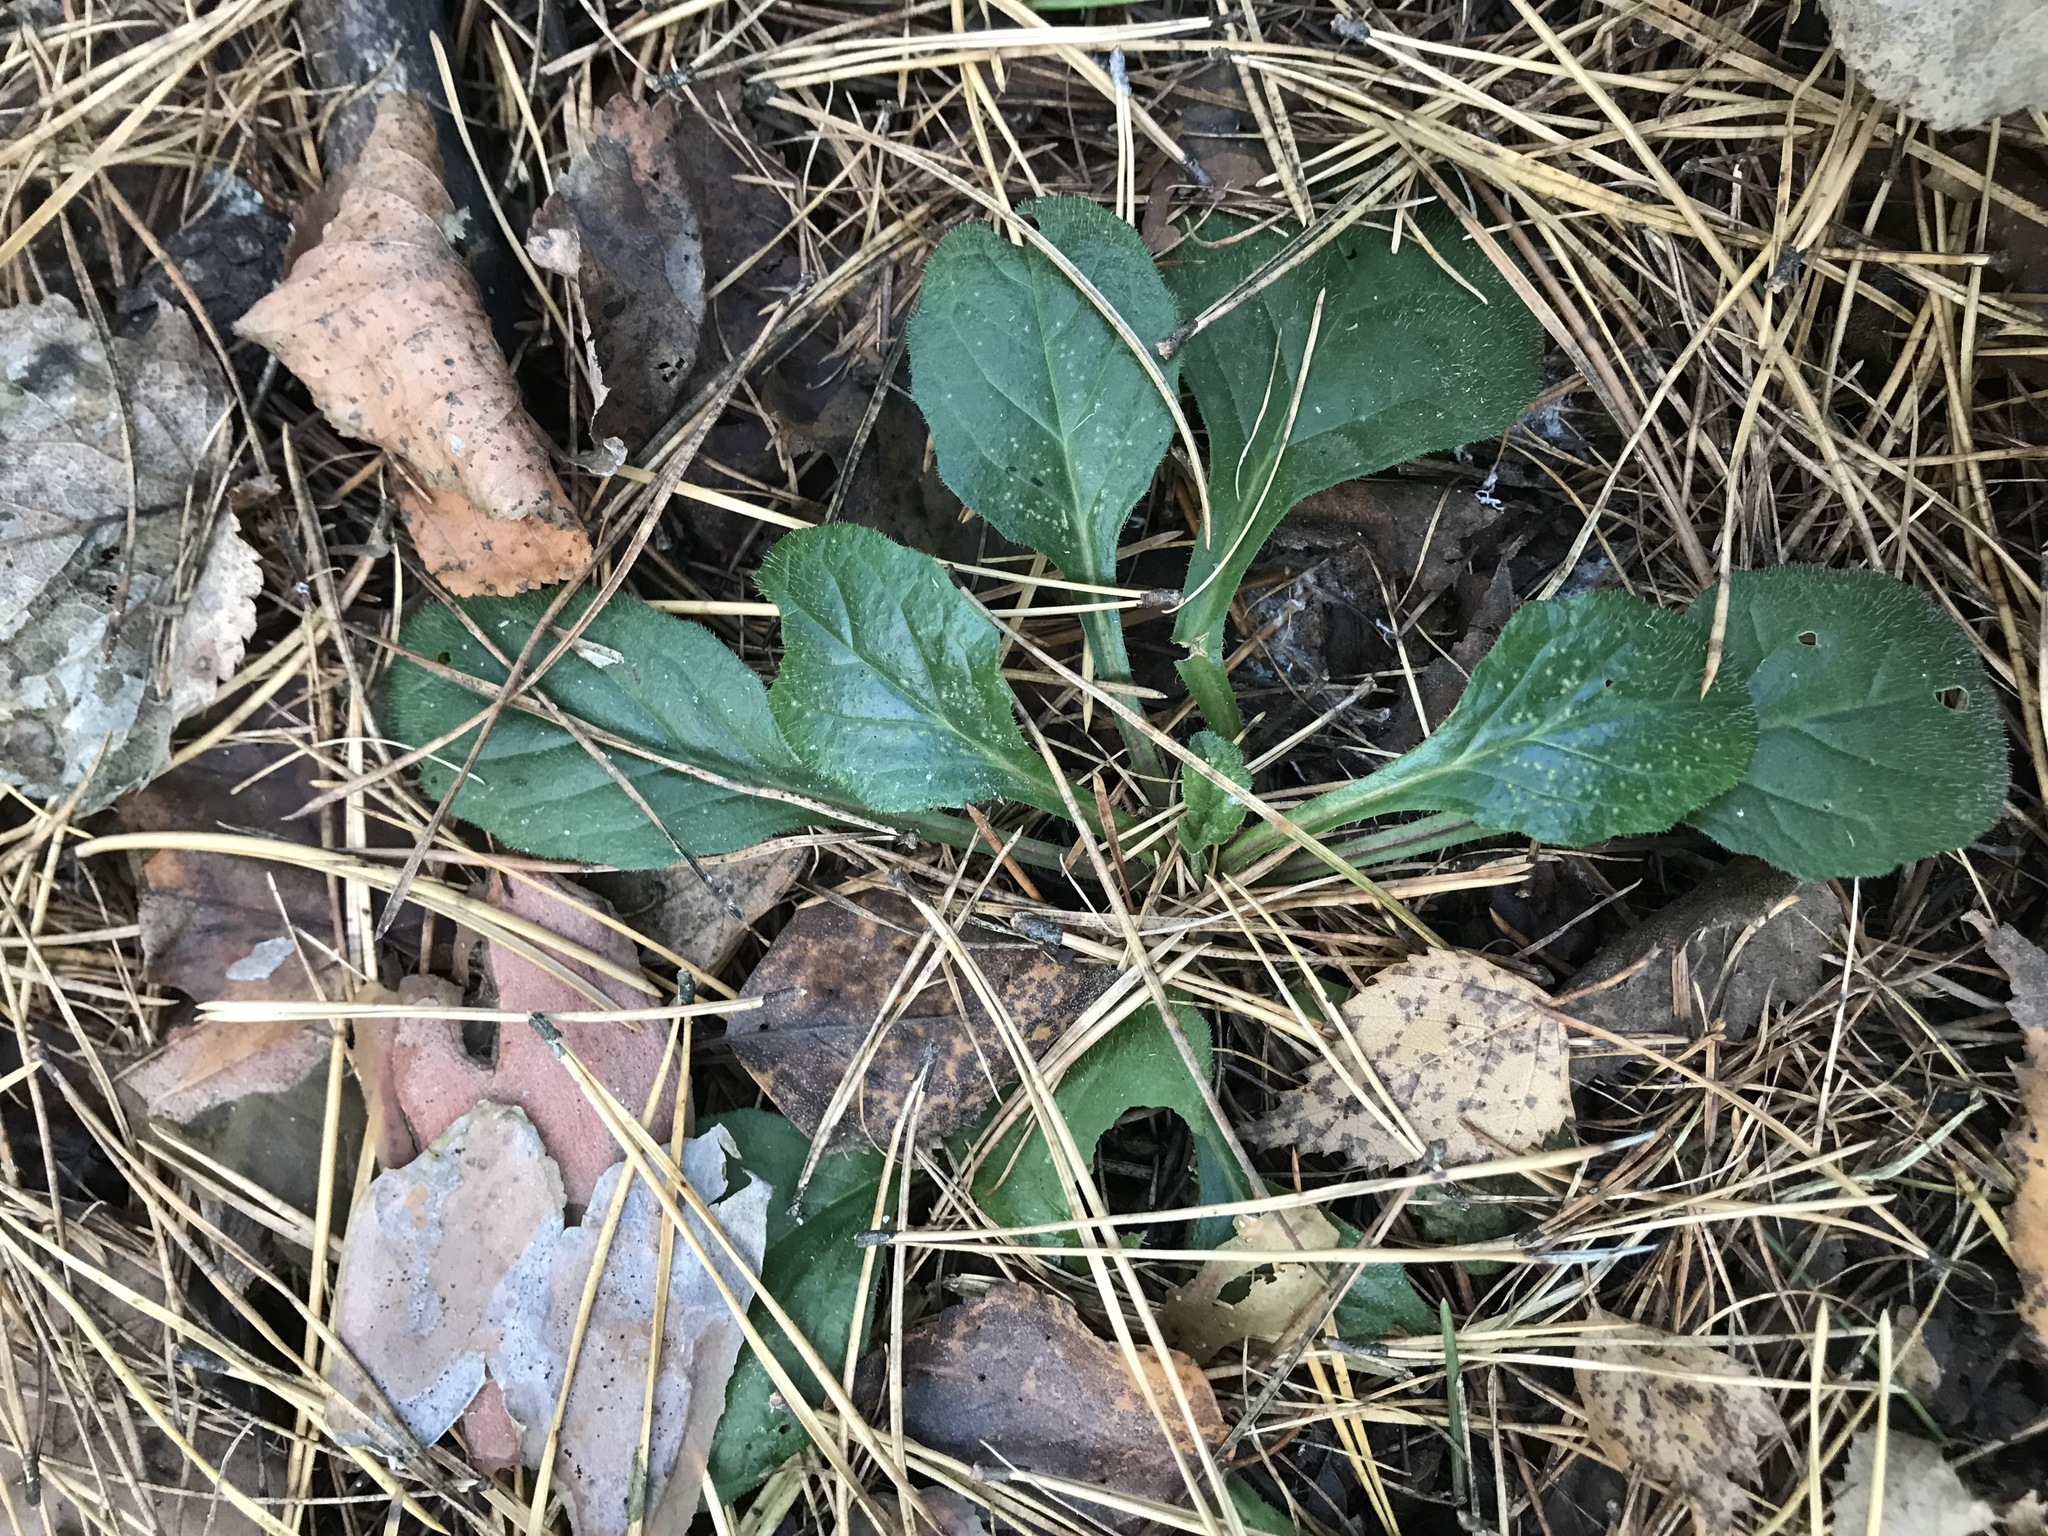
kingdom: Plantae
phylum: Tracheophyta
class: Magnoliopsida
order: Lamiales
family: Lamiaceae
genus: Ajuga
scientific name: Ajuga reptans
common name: Bugle
